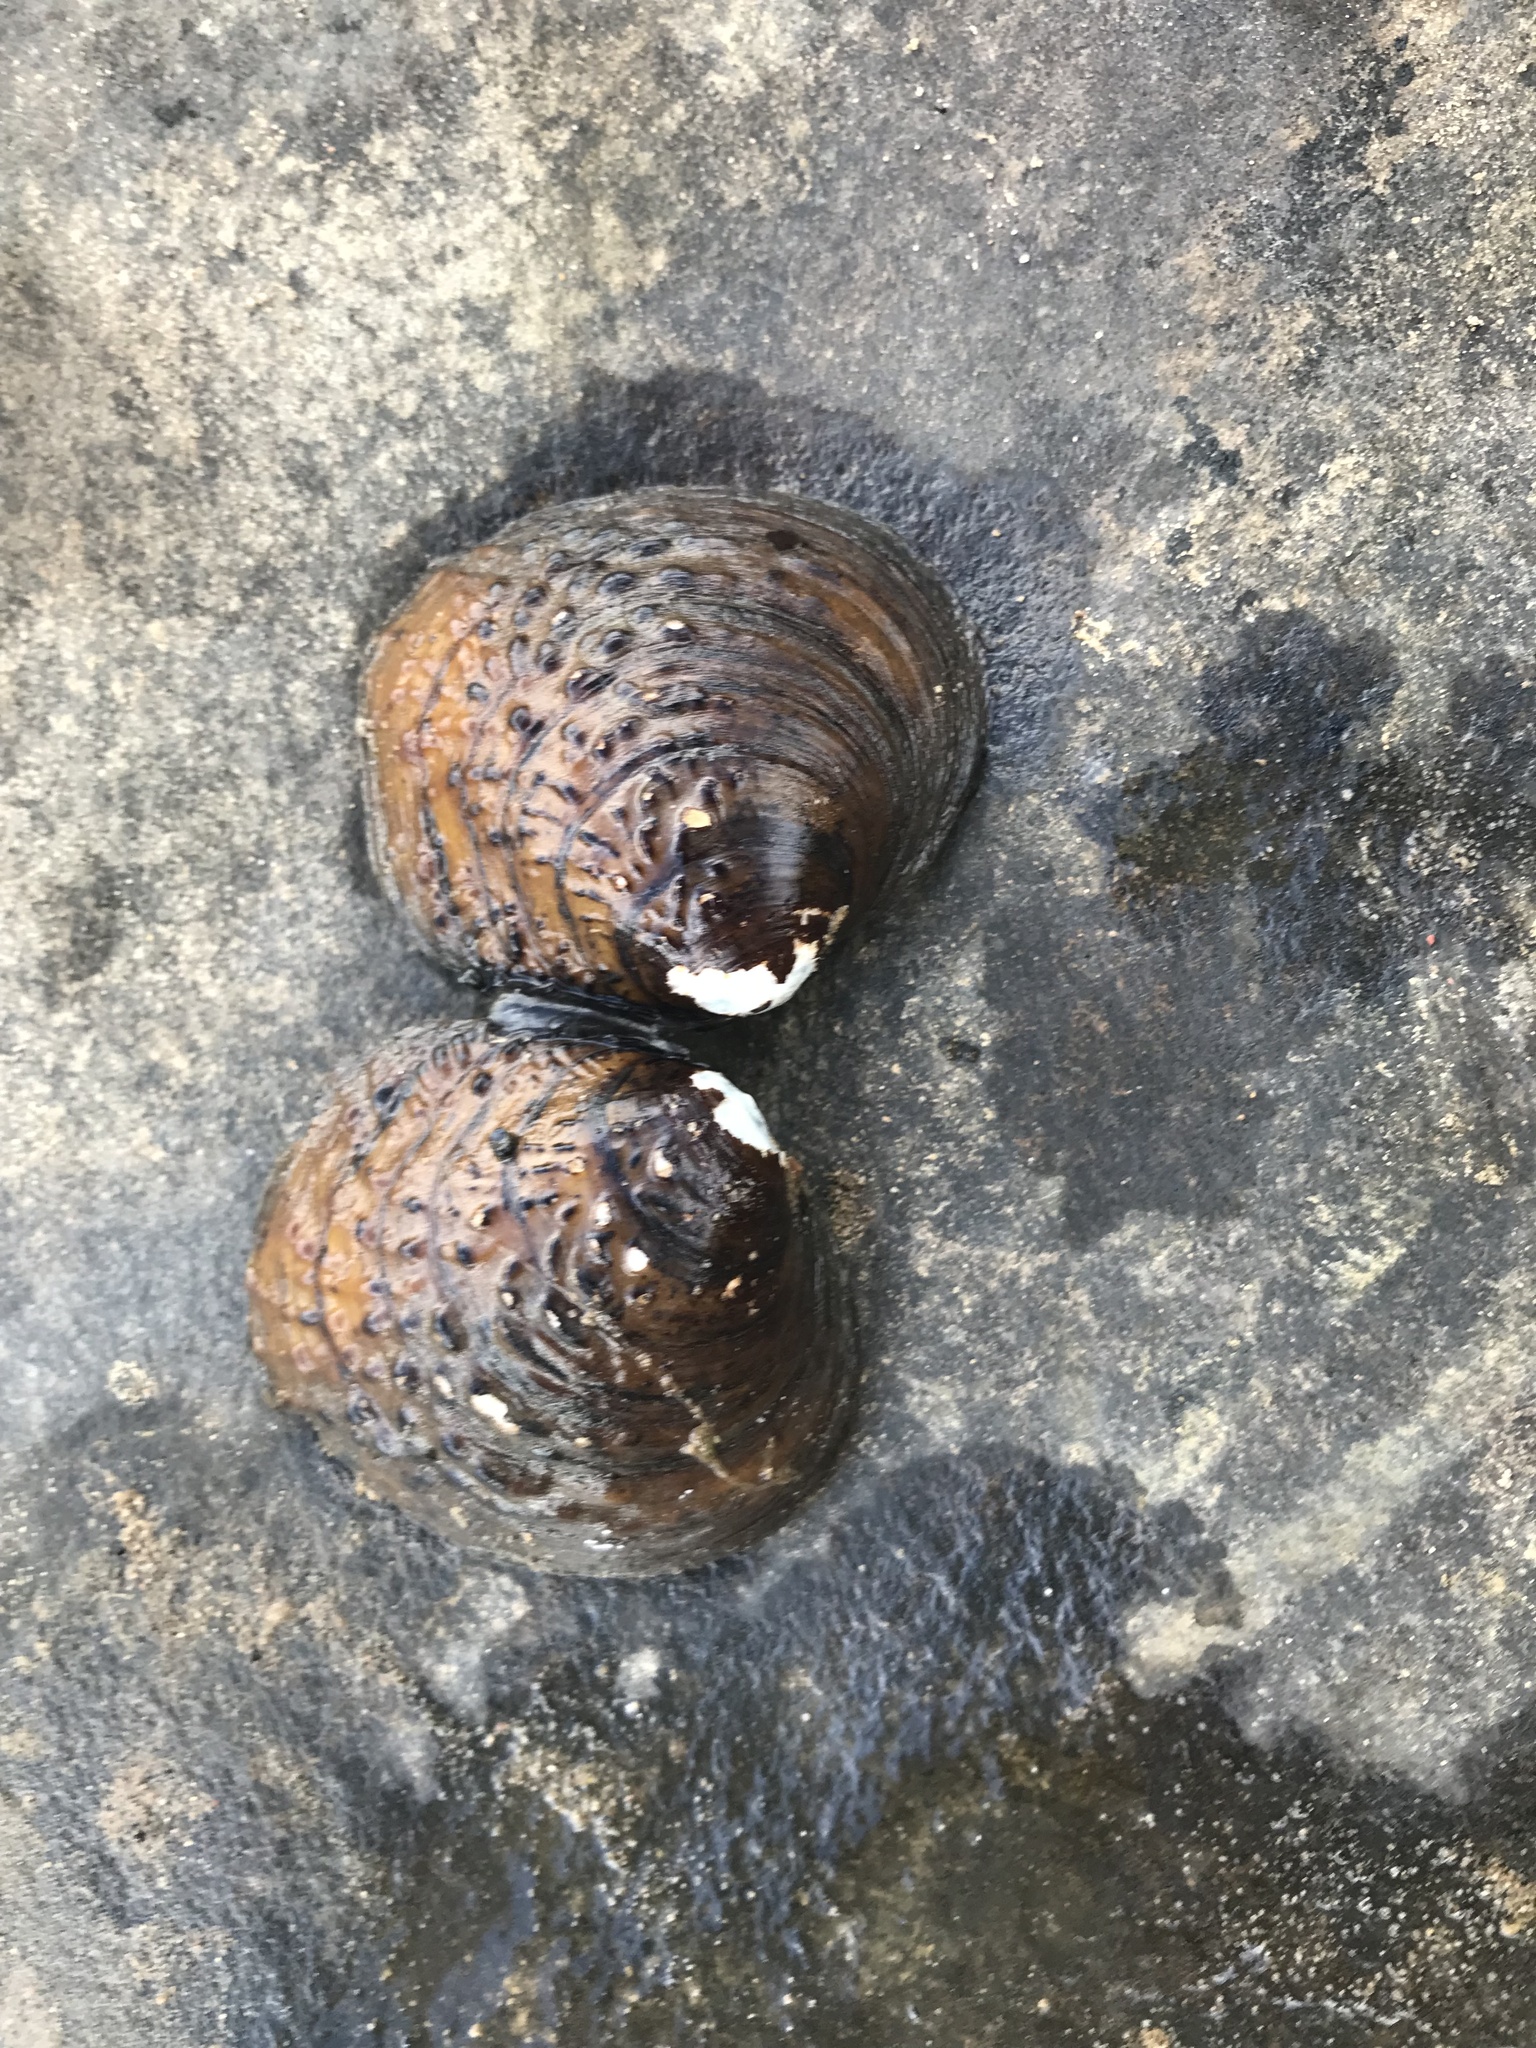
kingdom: Animalia
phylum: Mollusca
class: Bivalvia
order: Unionida
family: Unionidae
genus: Cyclonaias
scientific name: Cyclonaias kieneriana
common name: Coosa orb
